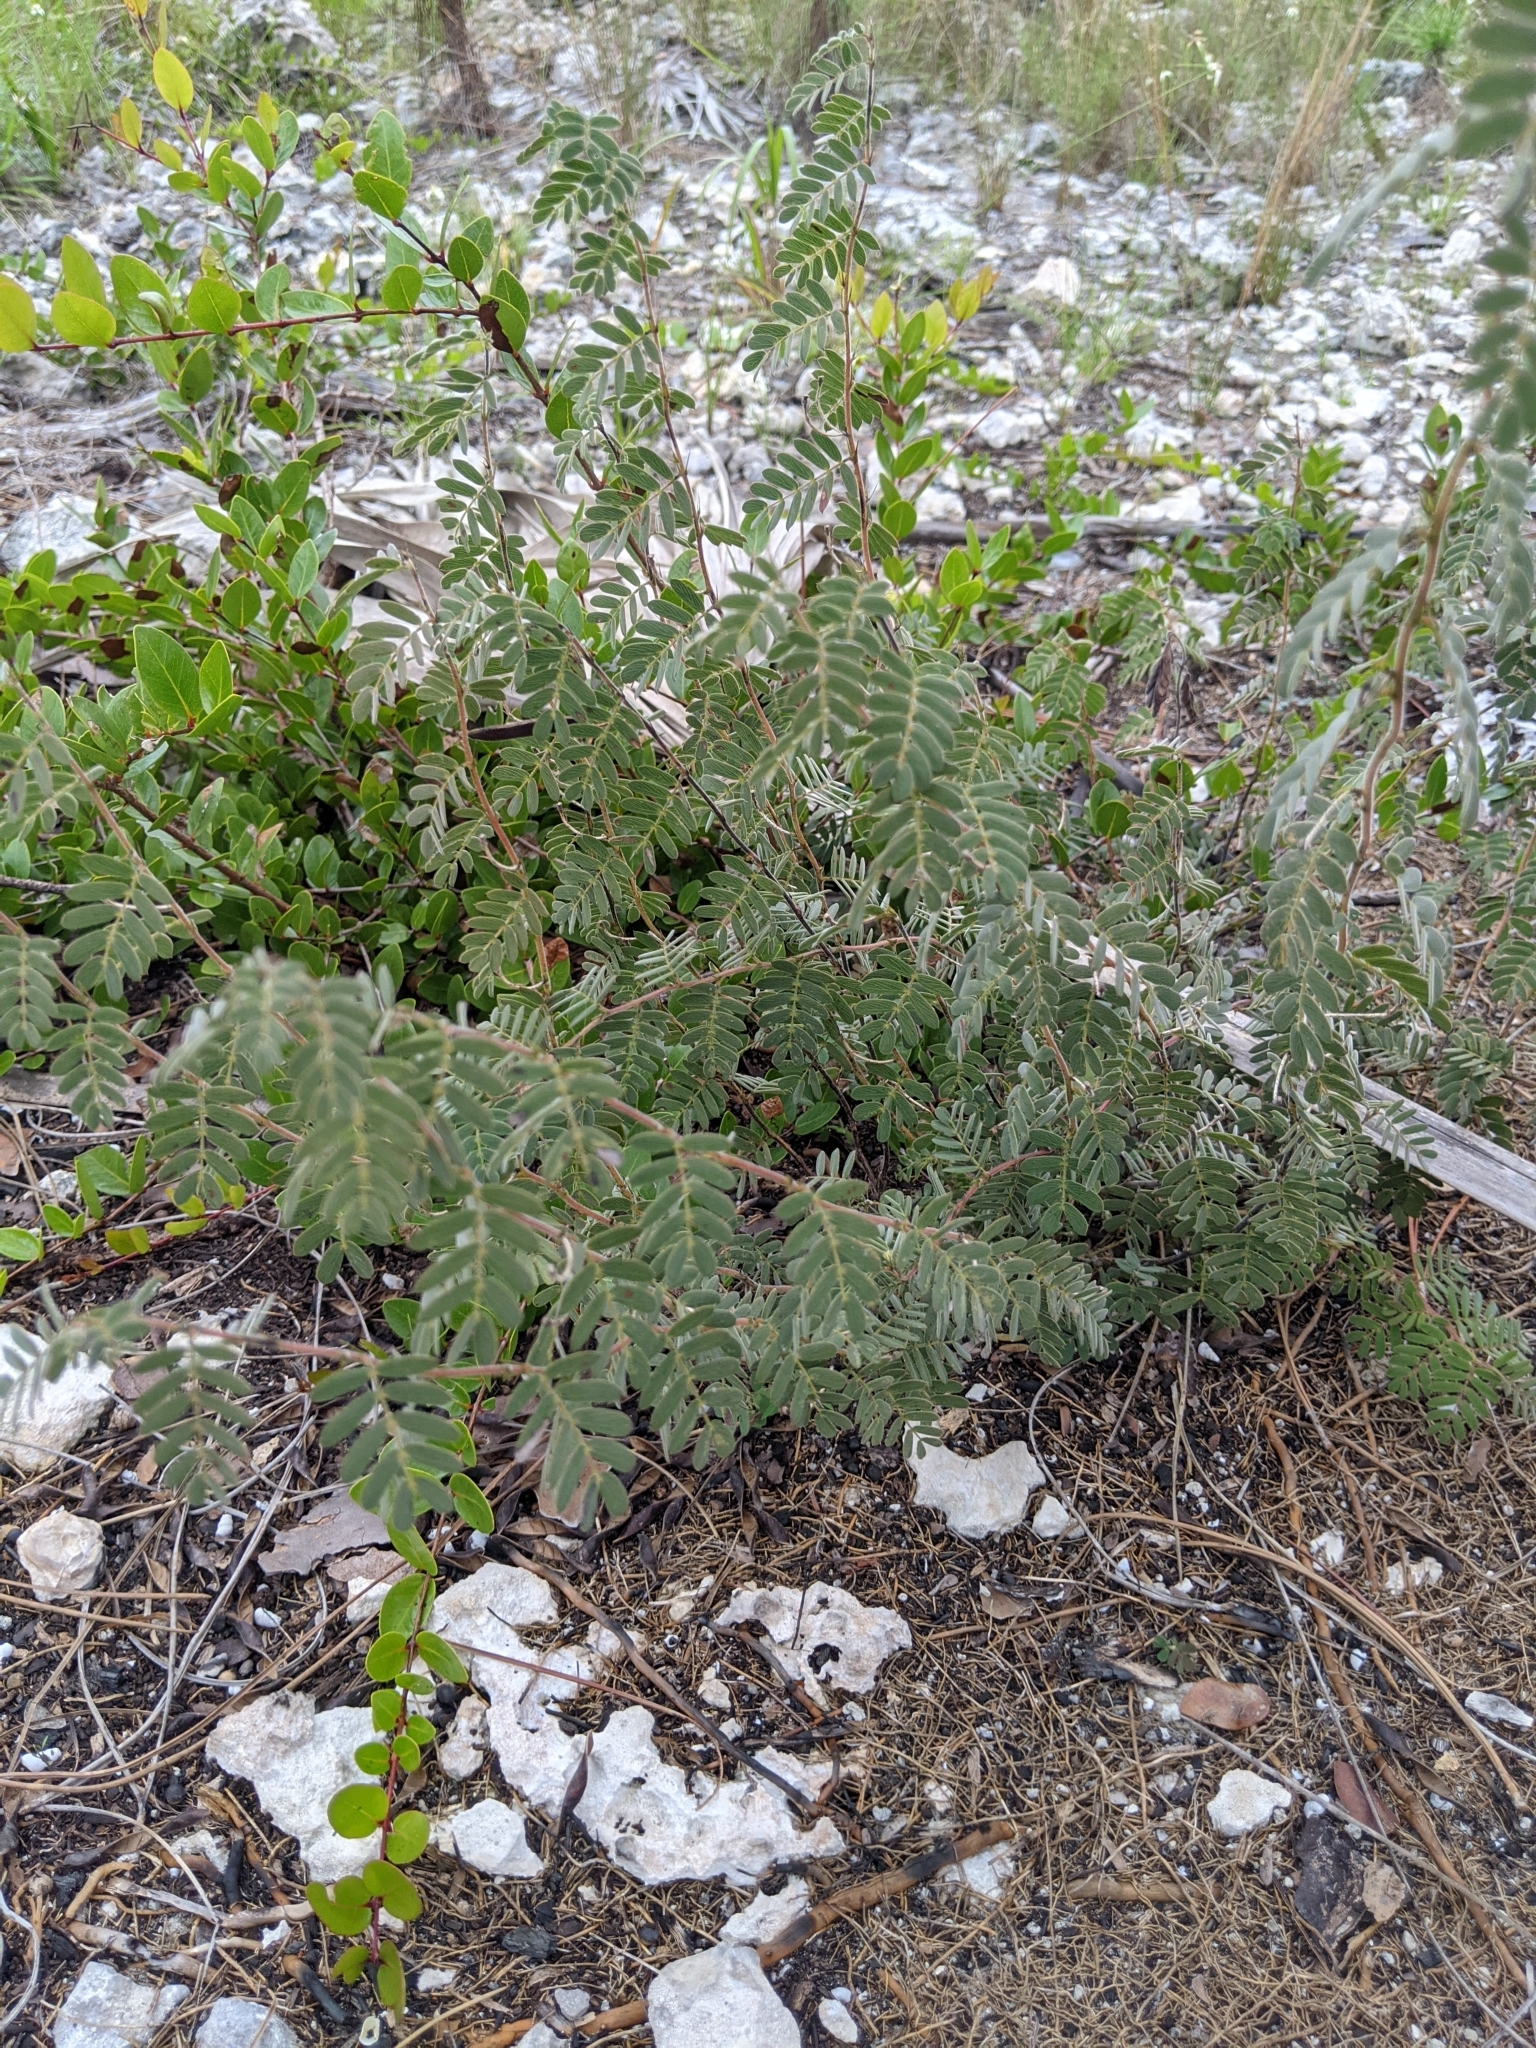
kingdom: Plantae
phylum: Tracheophyta
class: Magnoliopsida
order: Fabales
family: Fabaceae
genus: Chamaecrista
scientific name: Chamaecrista lineata
